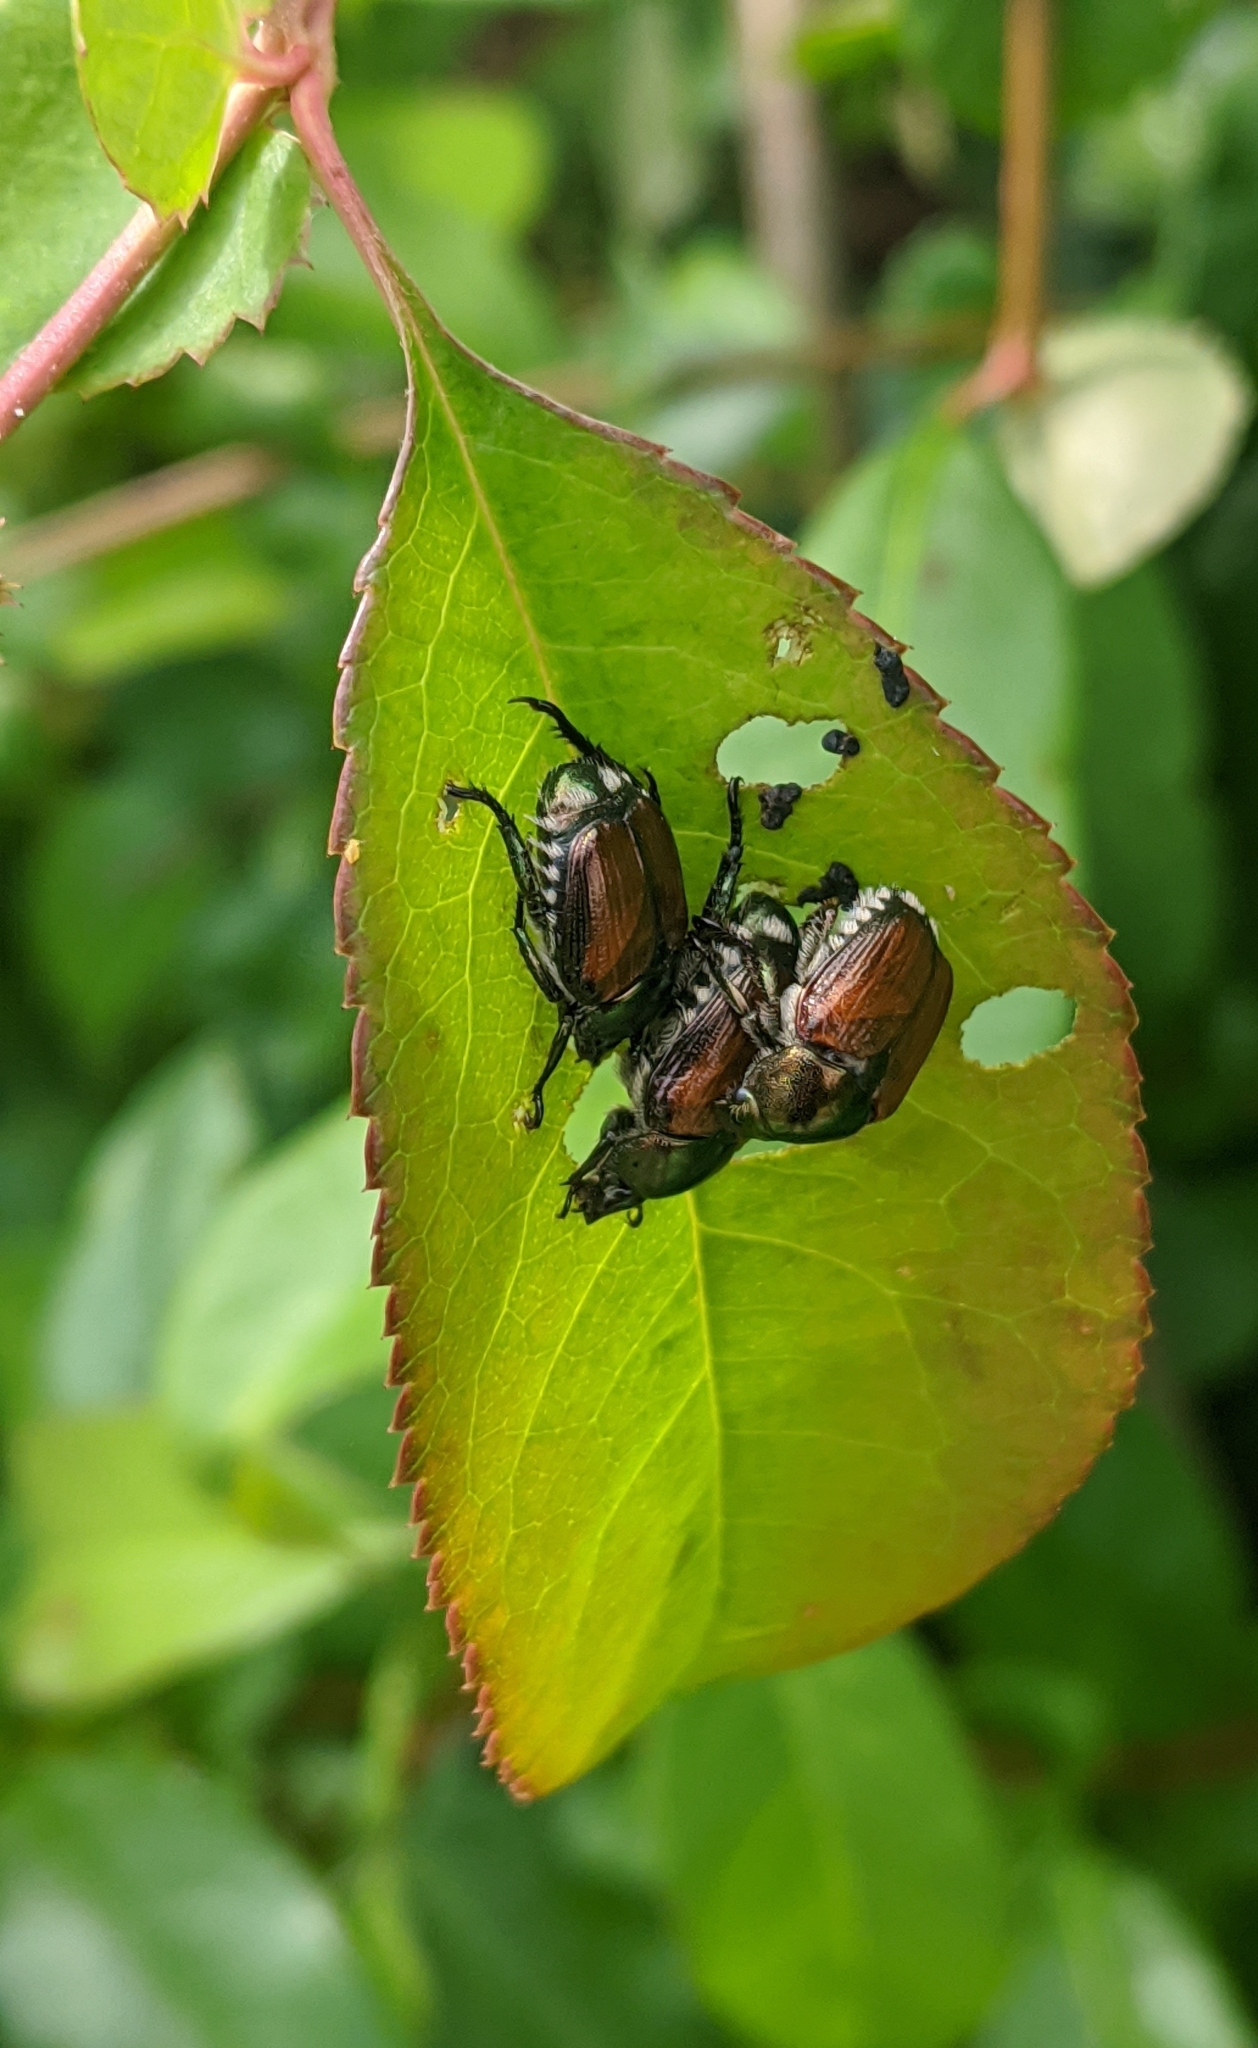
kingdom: Animalia
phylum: Arthropoda
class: Insecta
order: Coleoptera
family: Scarabaeidae
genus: Popillia
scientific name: Popillia japonica
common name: Japanese beetle
